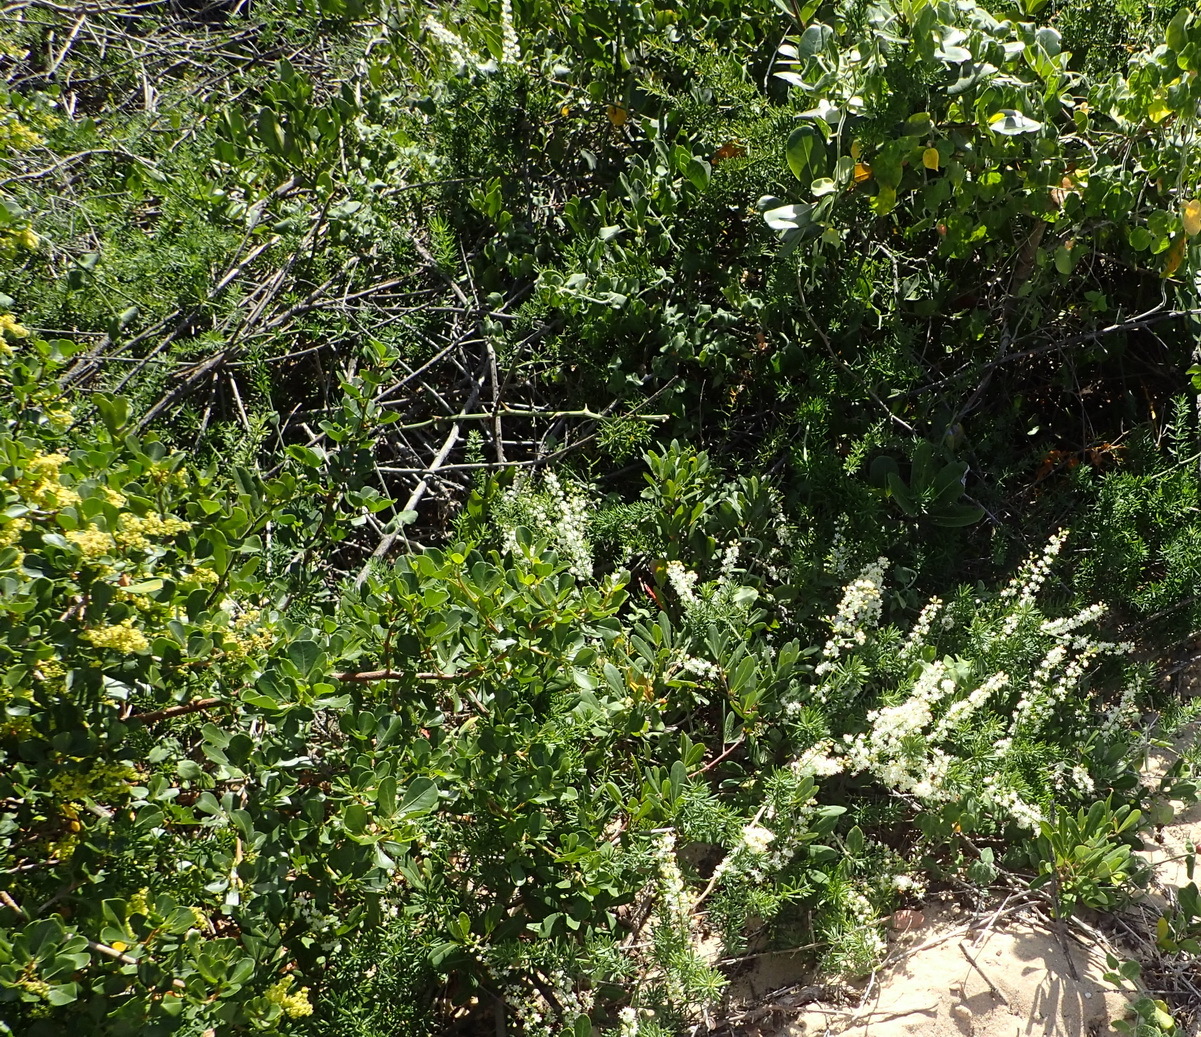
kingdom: Plantae
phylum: Tracheophyta
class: Liliopsida
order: Asparagales
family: Asparagaceae
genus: Asparagus
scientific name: Asparagus aethiopicus
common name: Sprenger's asparagus fern
